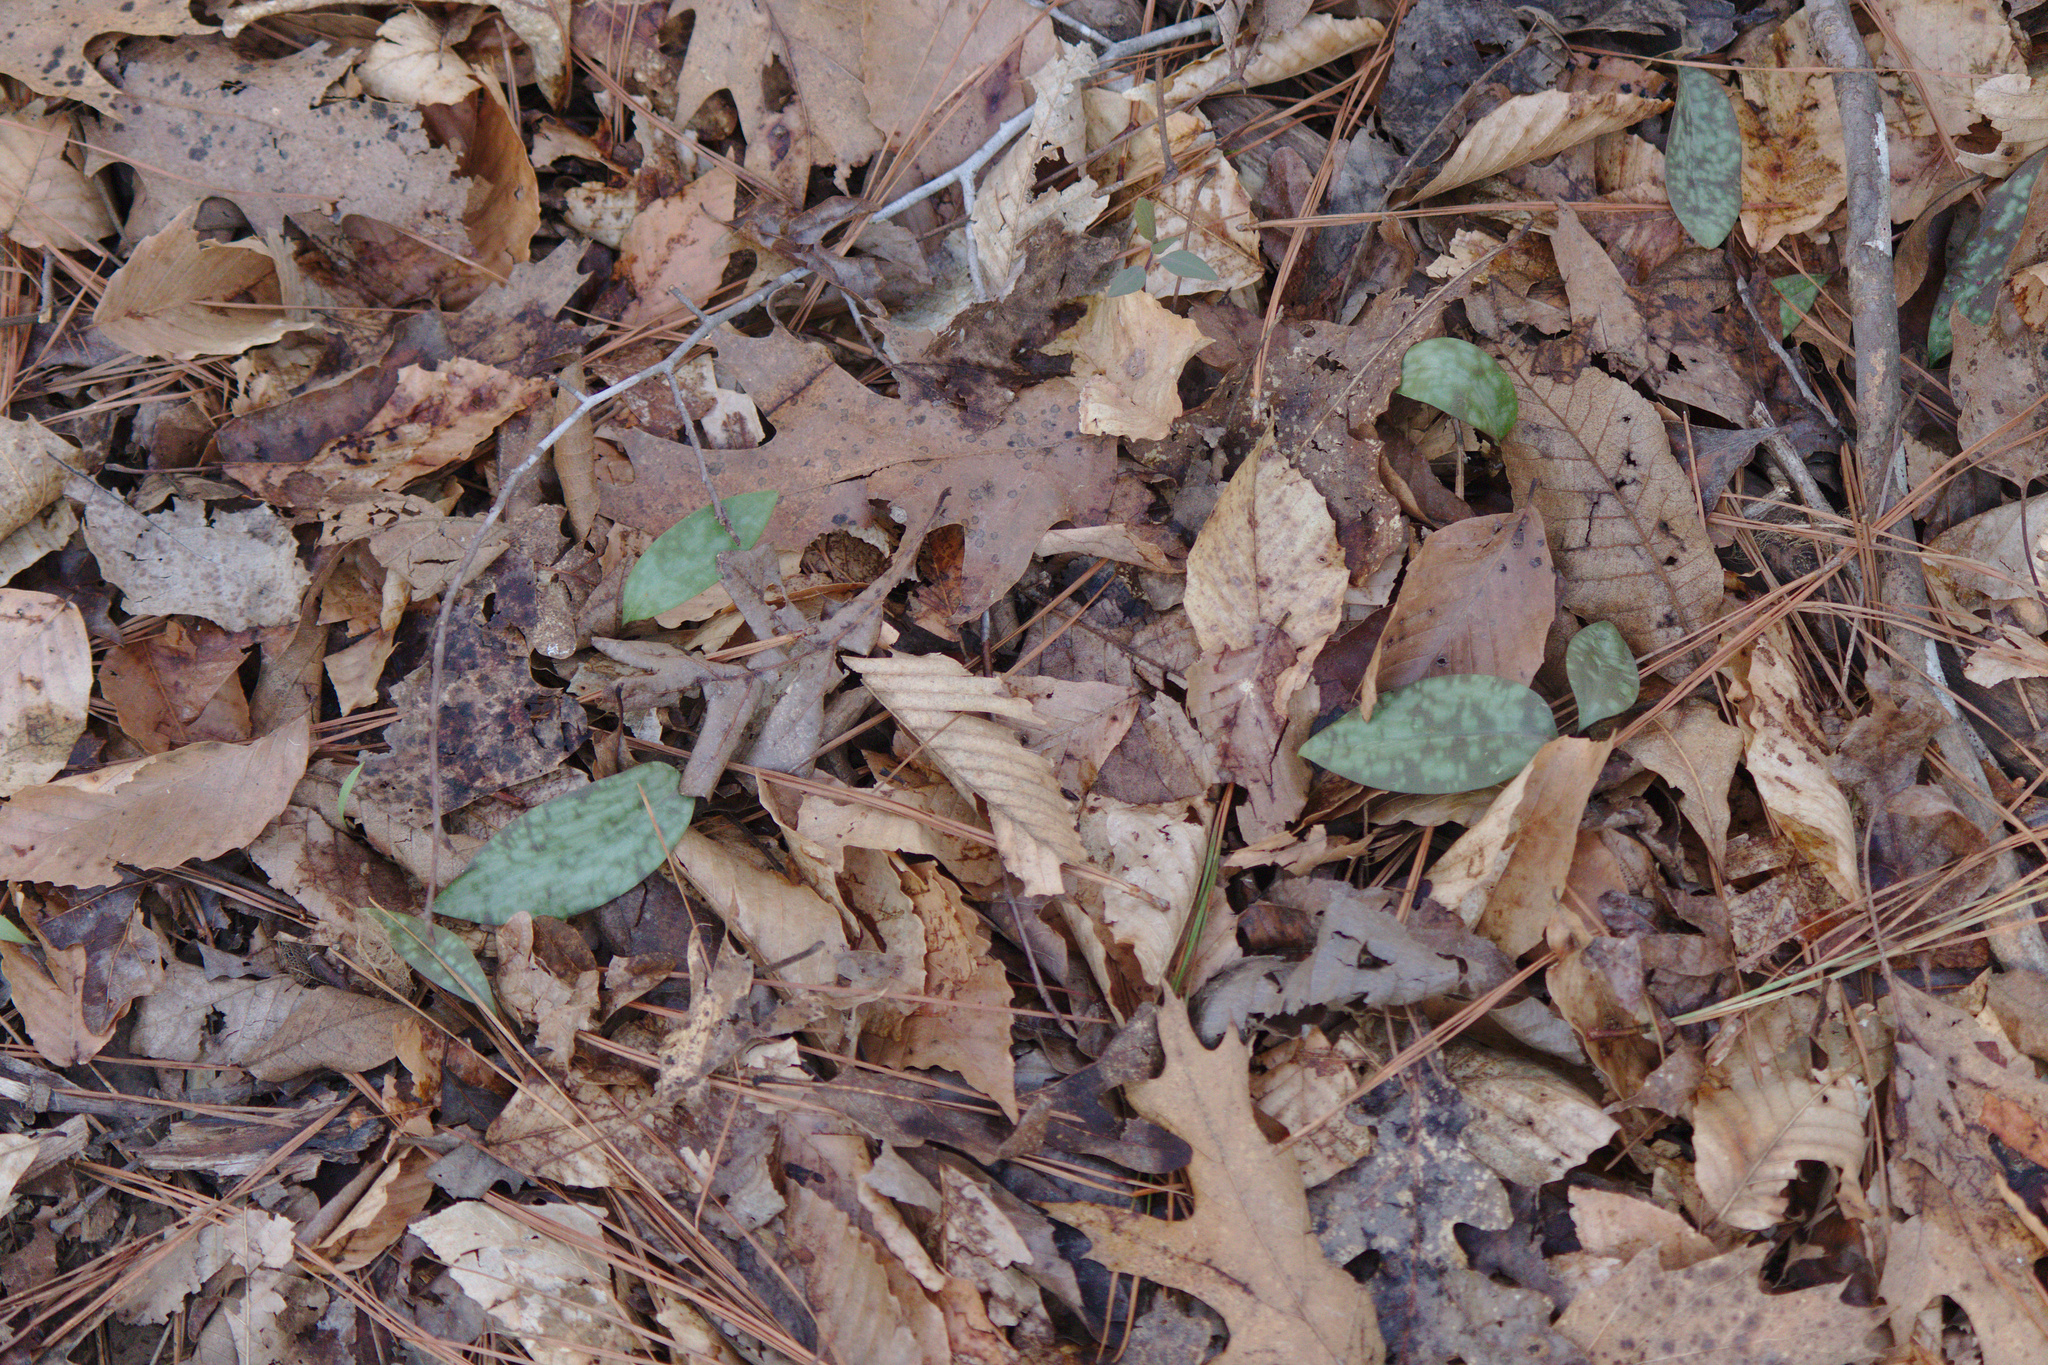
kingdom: Plantae
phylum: Tracheophyta
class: Liliopsida
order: Asparagales
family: Orchidaceae
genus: Tipularia
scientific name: Tipularia discolor
